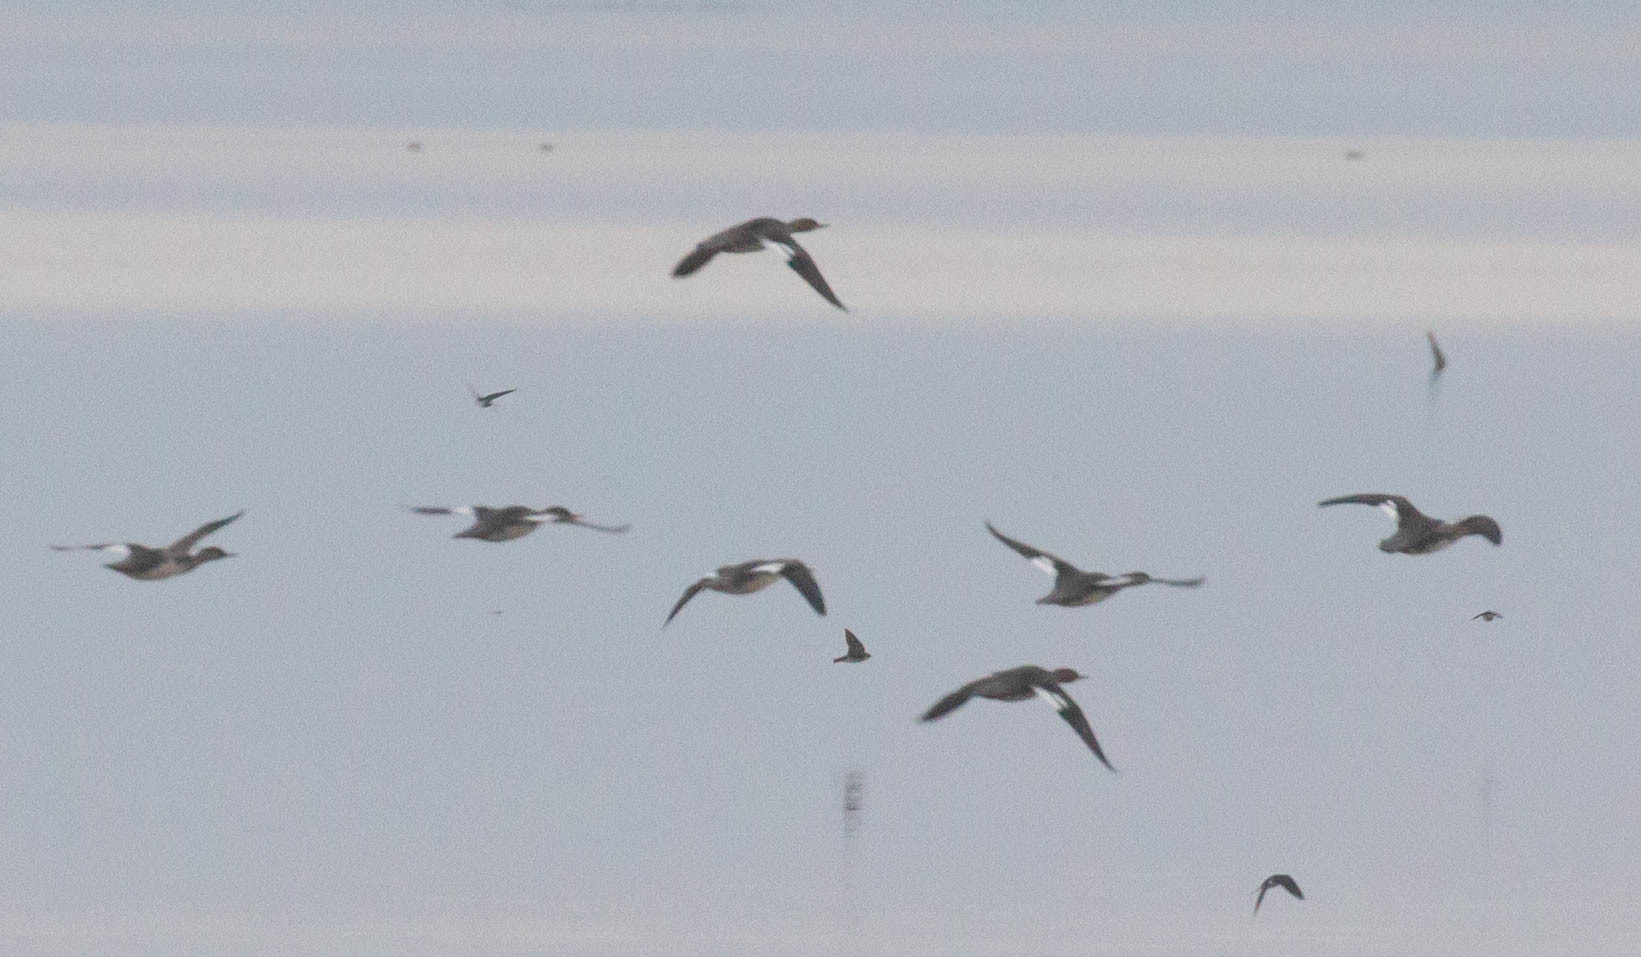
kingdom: Animalia
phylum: Chordata
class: Aves
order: Anseriformes
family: Anatidae
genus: Mergus
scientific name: Mergus serrator
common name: Red-breasted merganser
